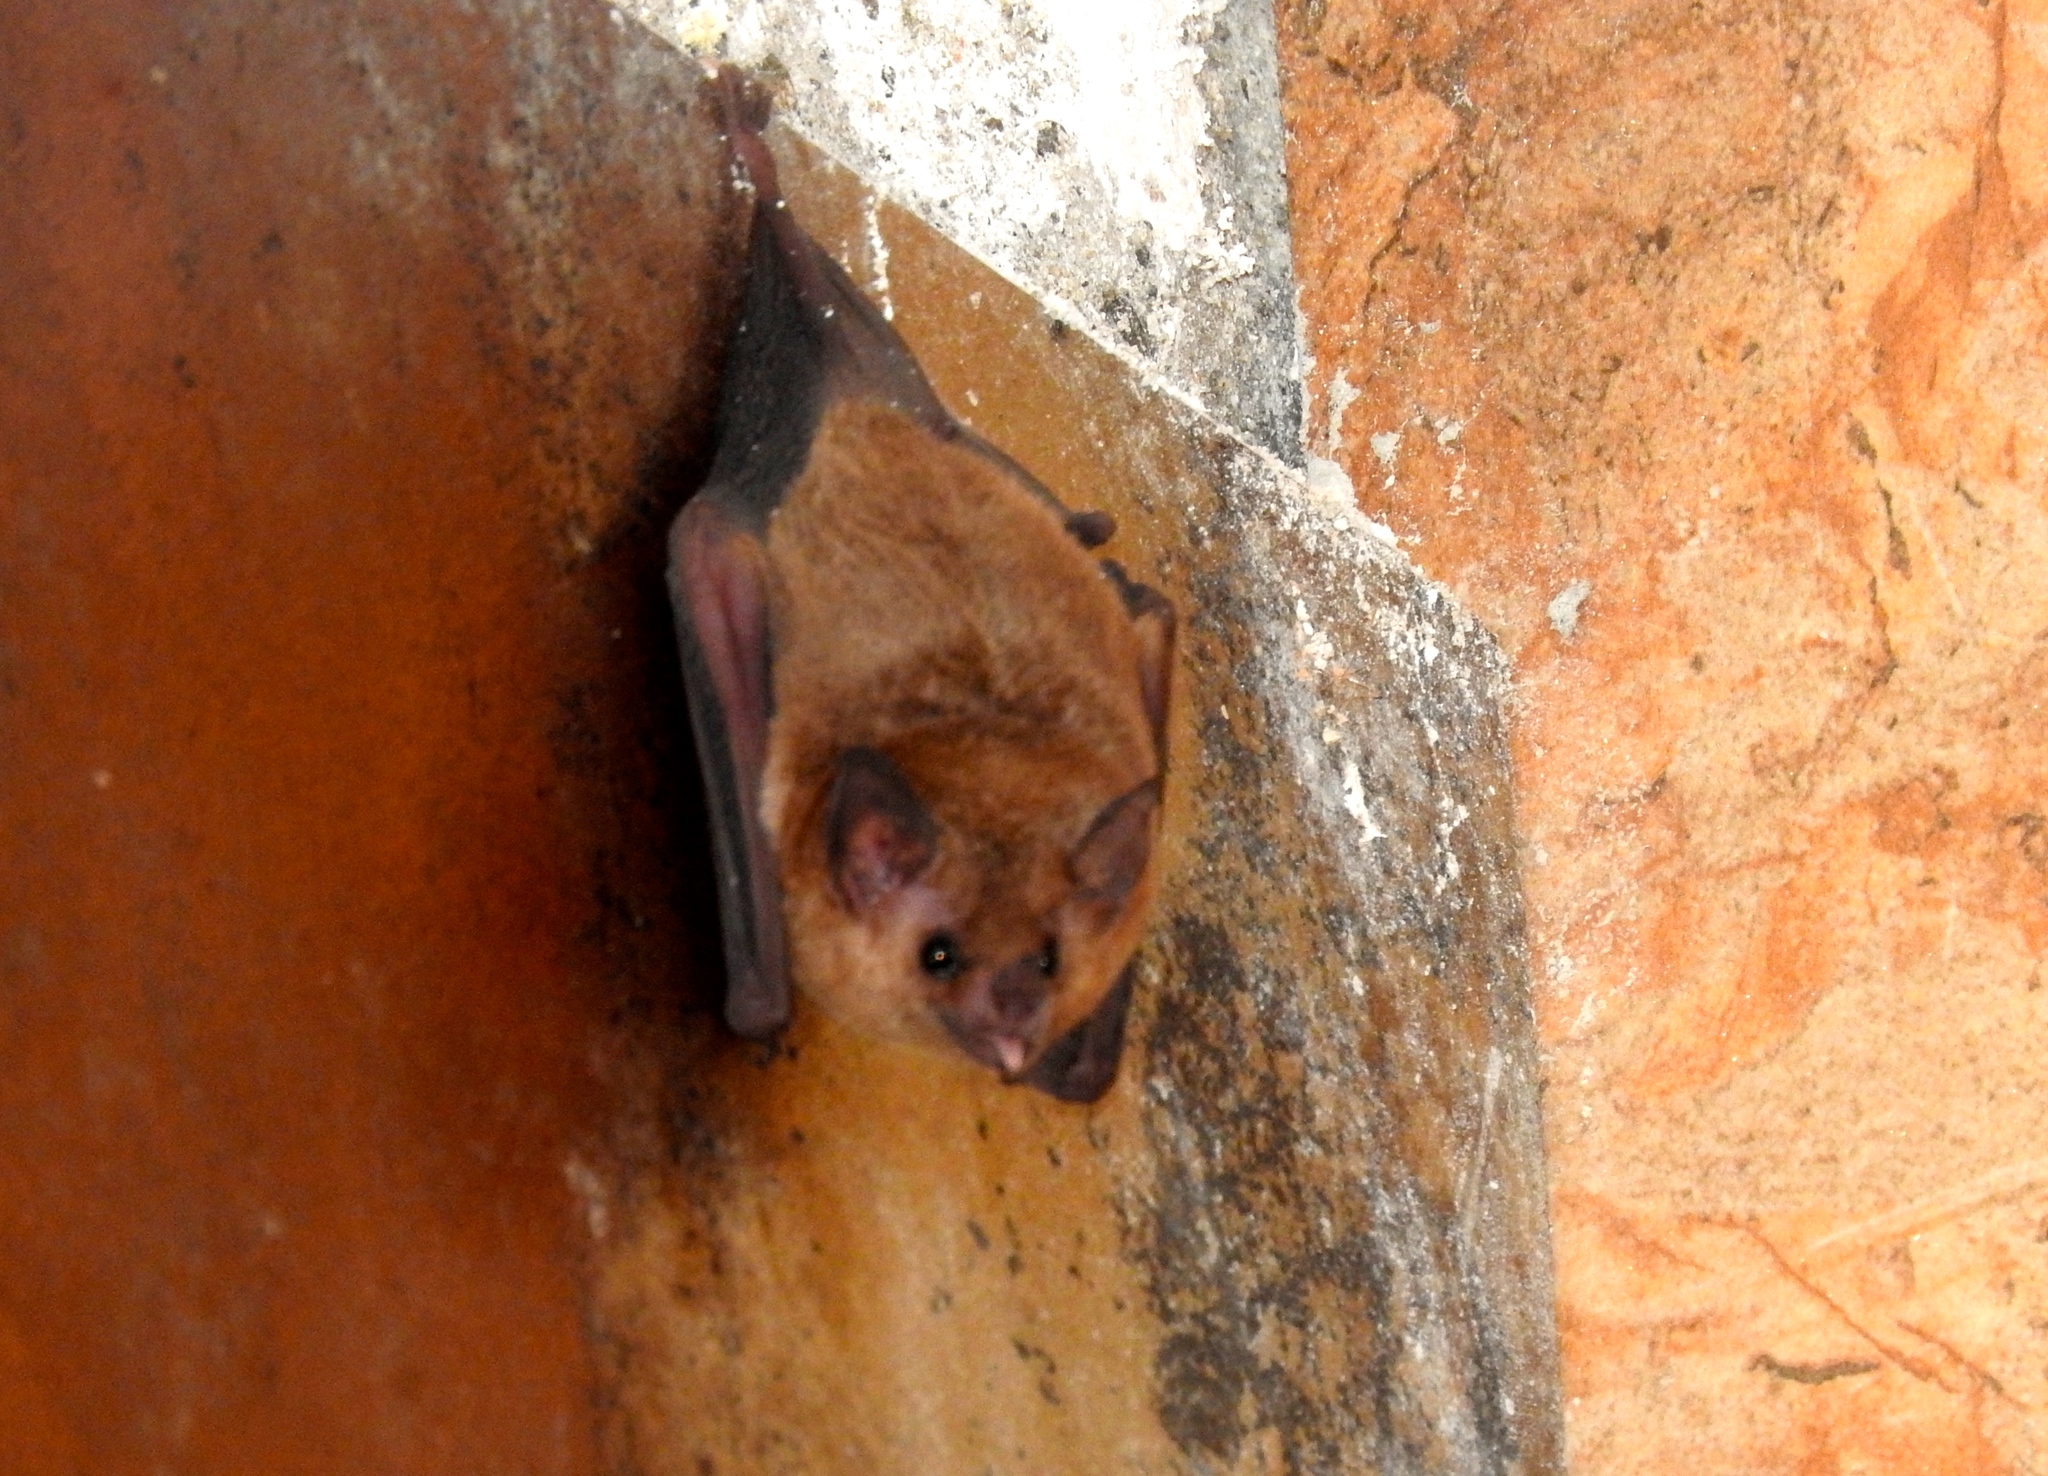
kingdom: Animalia
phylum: Chordata
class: Mammalia
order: Chiroptera
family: Phyllostomidae
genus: Glossophaga
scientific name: Glossophaga commissarisi
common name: Commissaris's long-tongued bat
